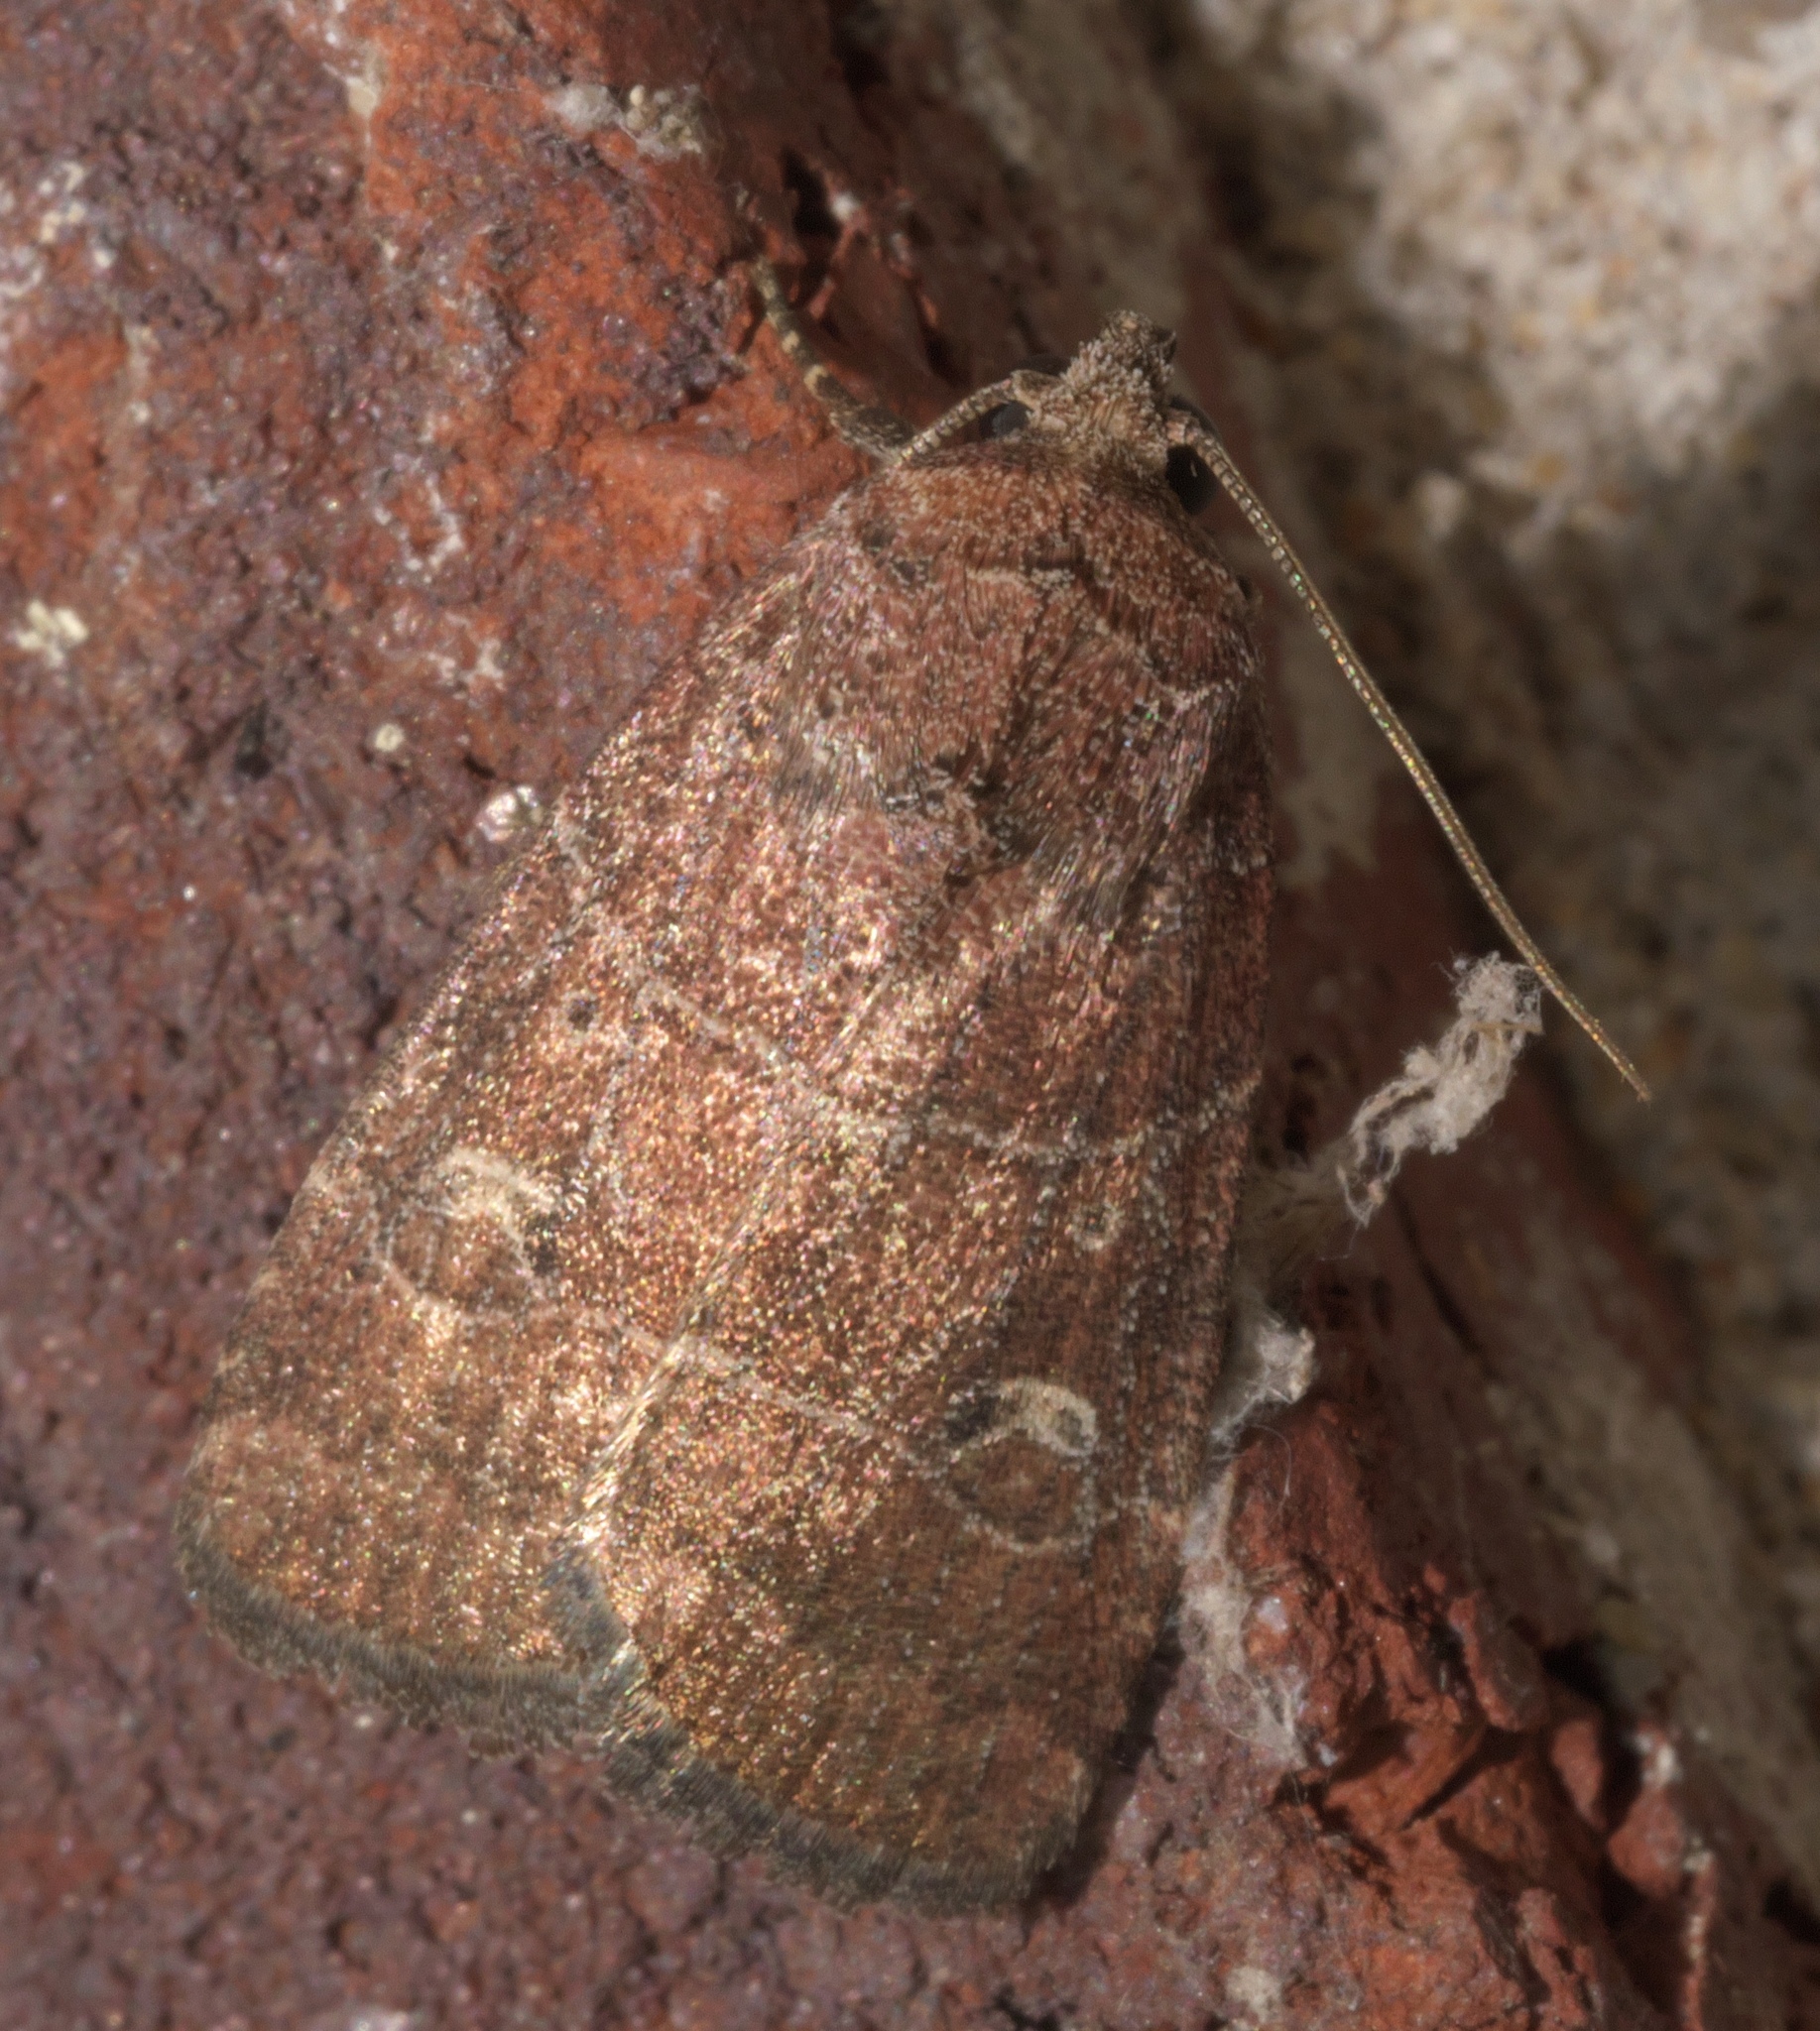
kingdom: Animalia
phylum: Arthropoda
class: Insecta
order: Lepidoptera
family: Noctuidae
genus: Elaphria
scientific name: Elaphria grata
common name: Grateful midget moth
